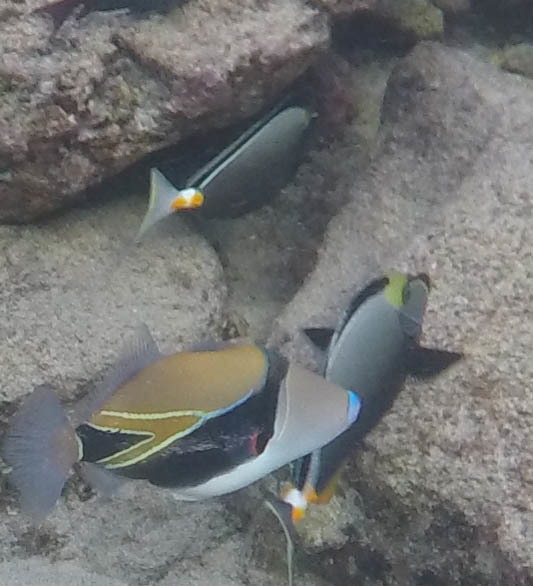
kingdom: Animalia
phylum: Chordata
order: Tetraodontiformes
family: Balistidae
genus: Rhinecanthus
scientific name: Rhinecanthus rectangulus
